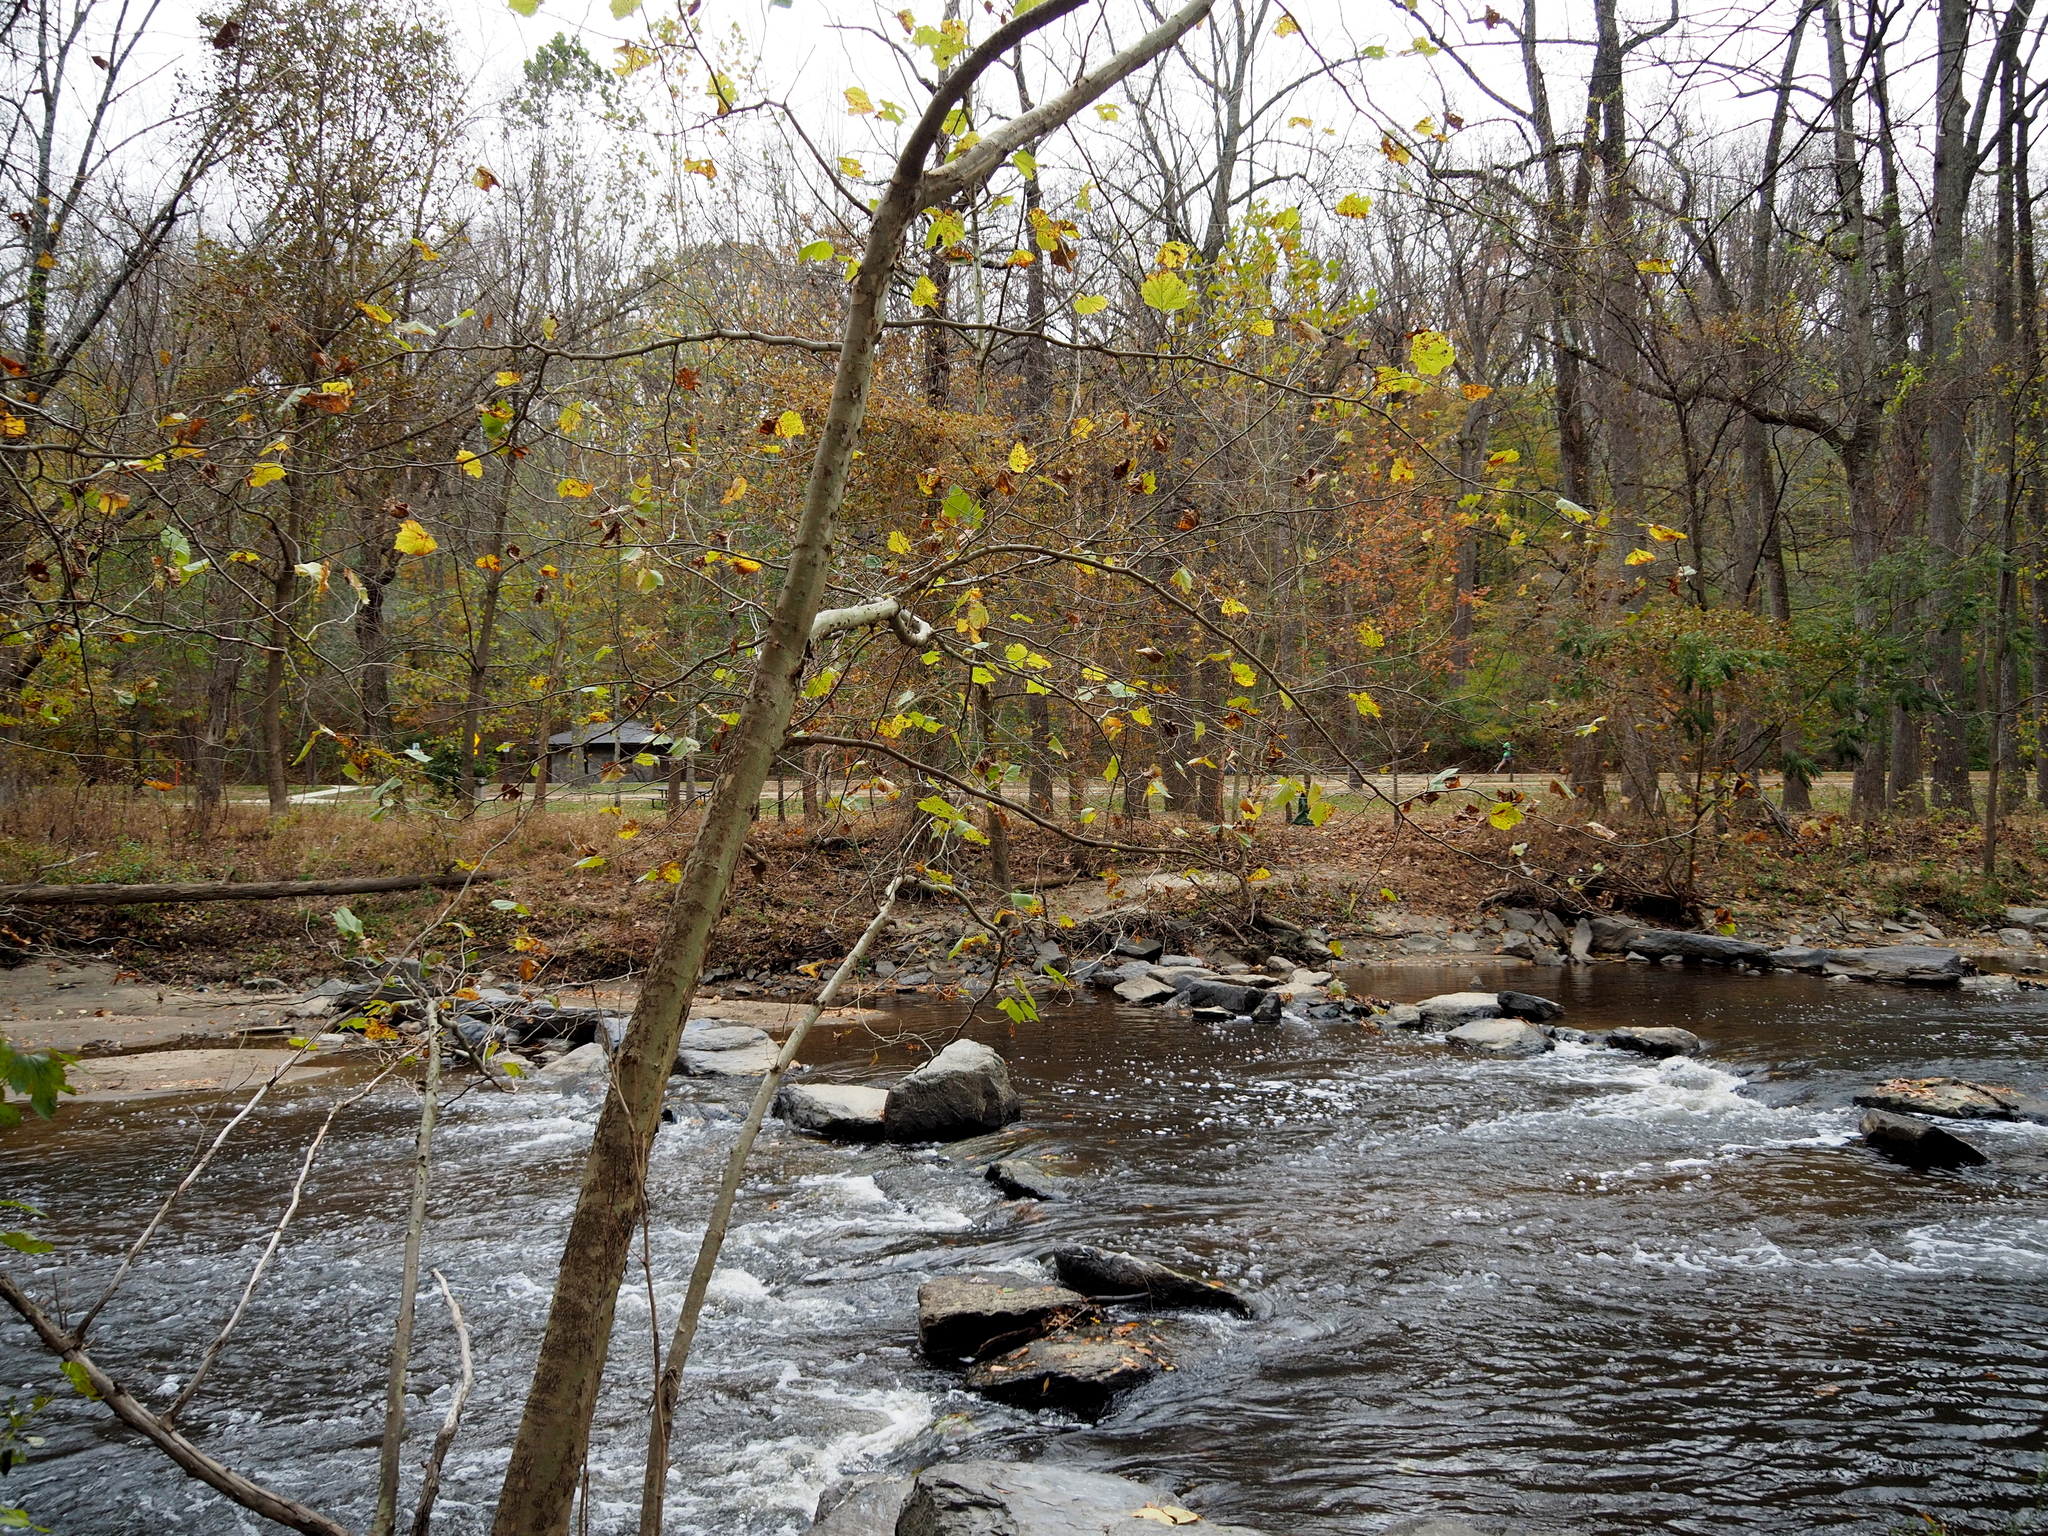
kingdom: Plantae
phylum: Tracheophyta
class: Magnoliopsida
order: Proteales
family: Platanaceae
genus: Platanus
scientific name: Platanus occidentalis
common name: American sycamore
